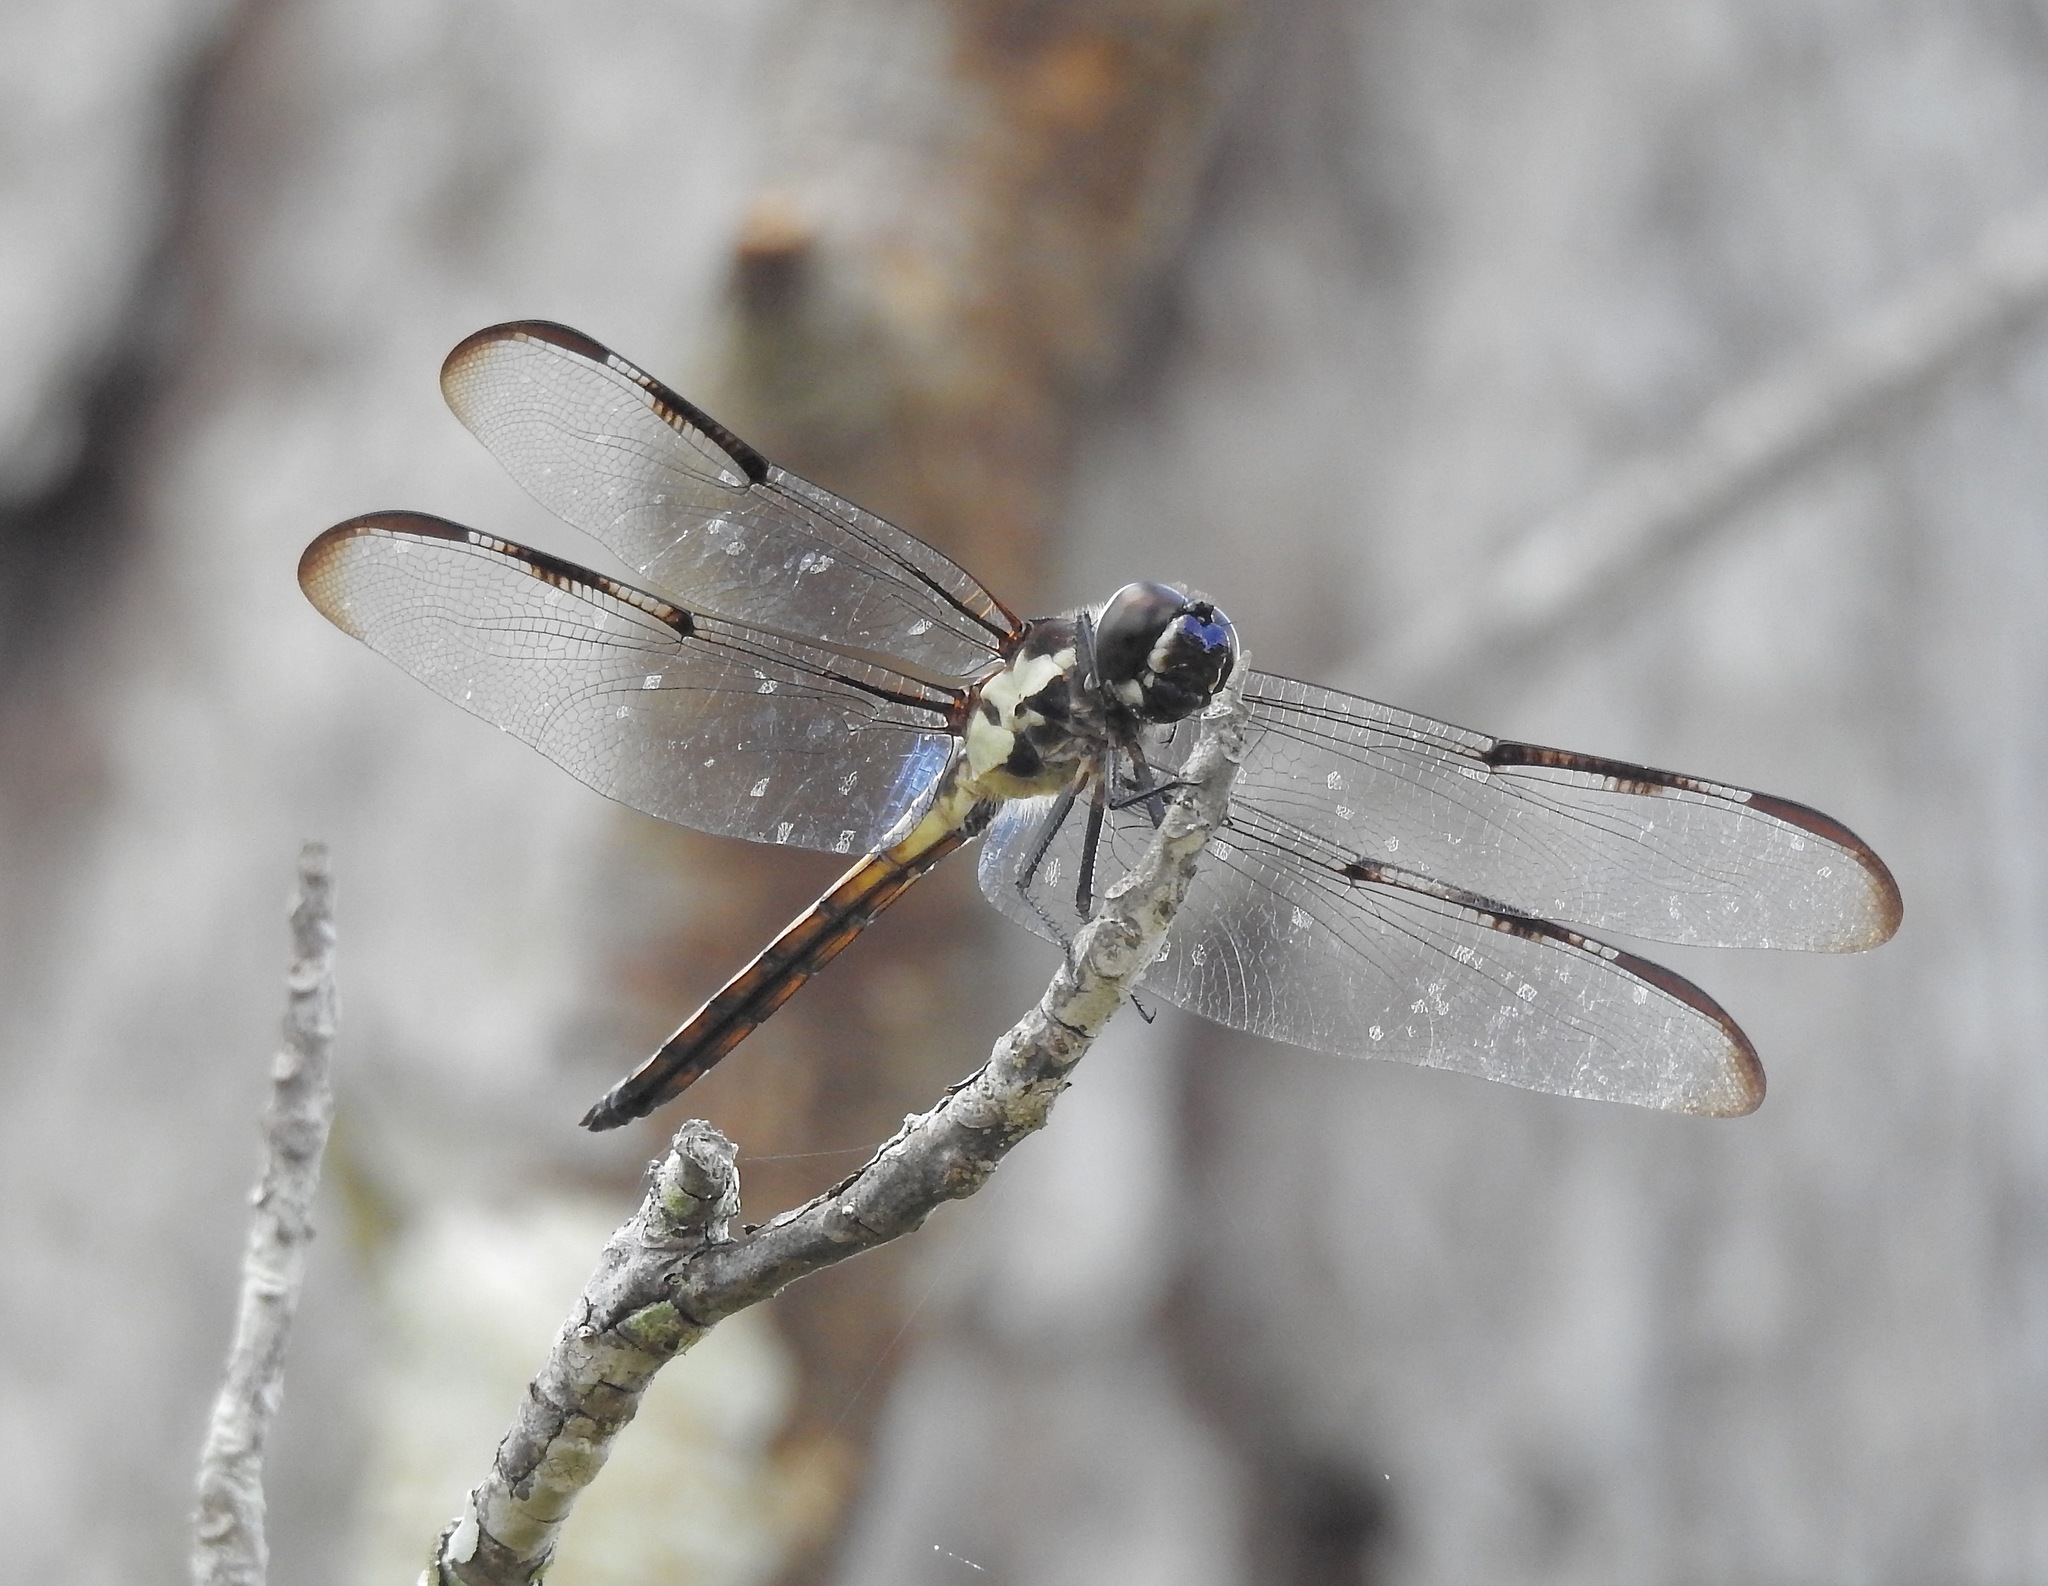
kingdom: Animalia
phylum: Arthropoda
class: Insecta
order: Odonata
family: Libellulidae
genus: Libellula
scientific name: Libellula axilena
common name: Bar-winged skimmer
